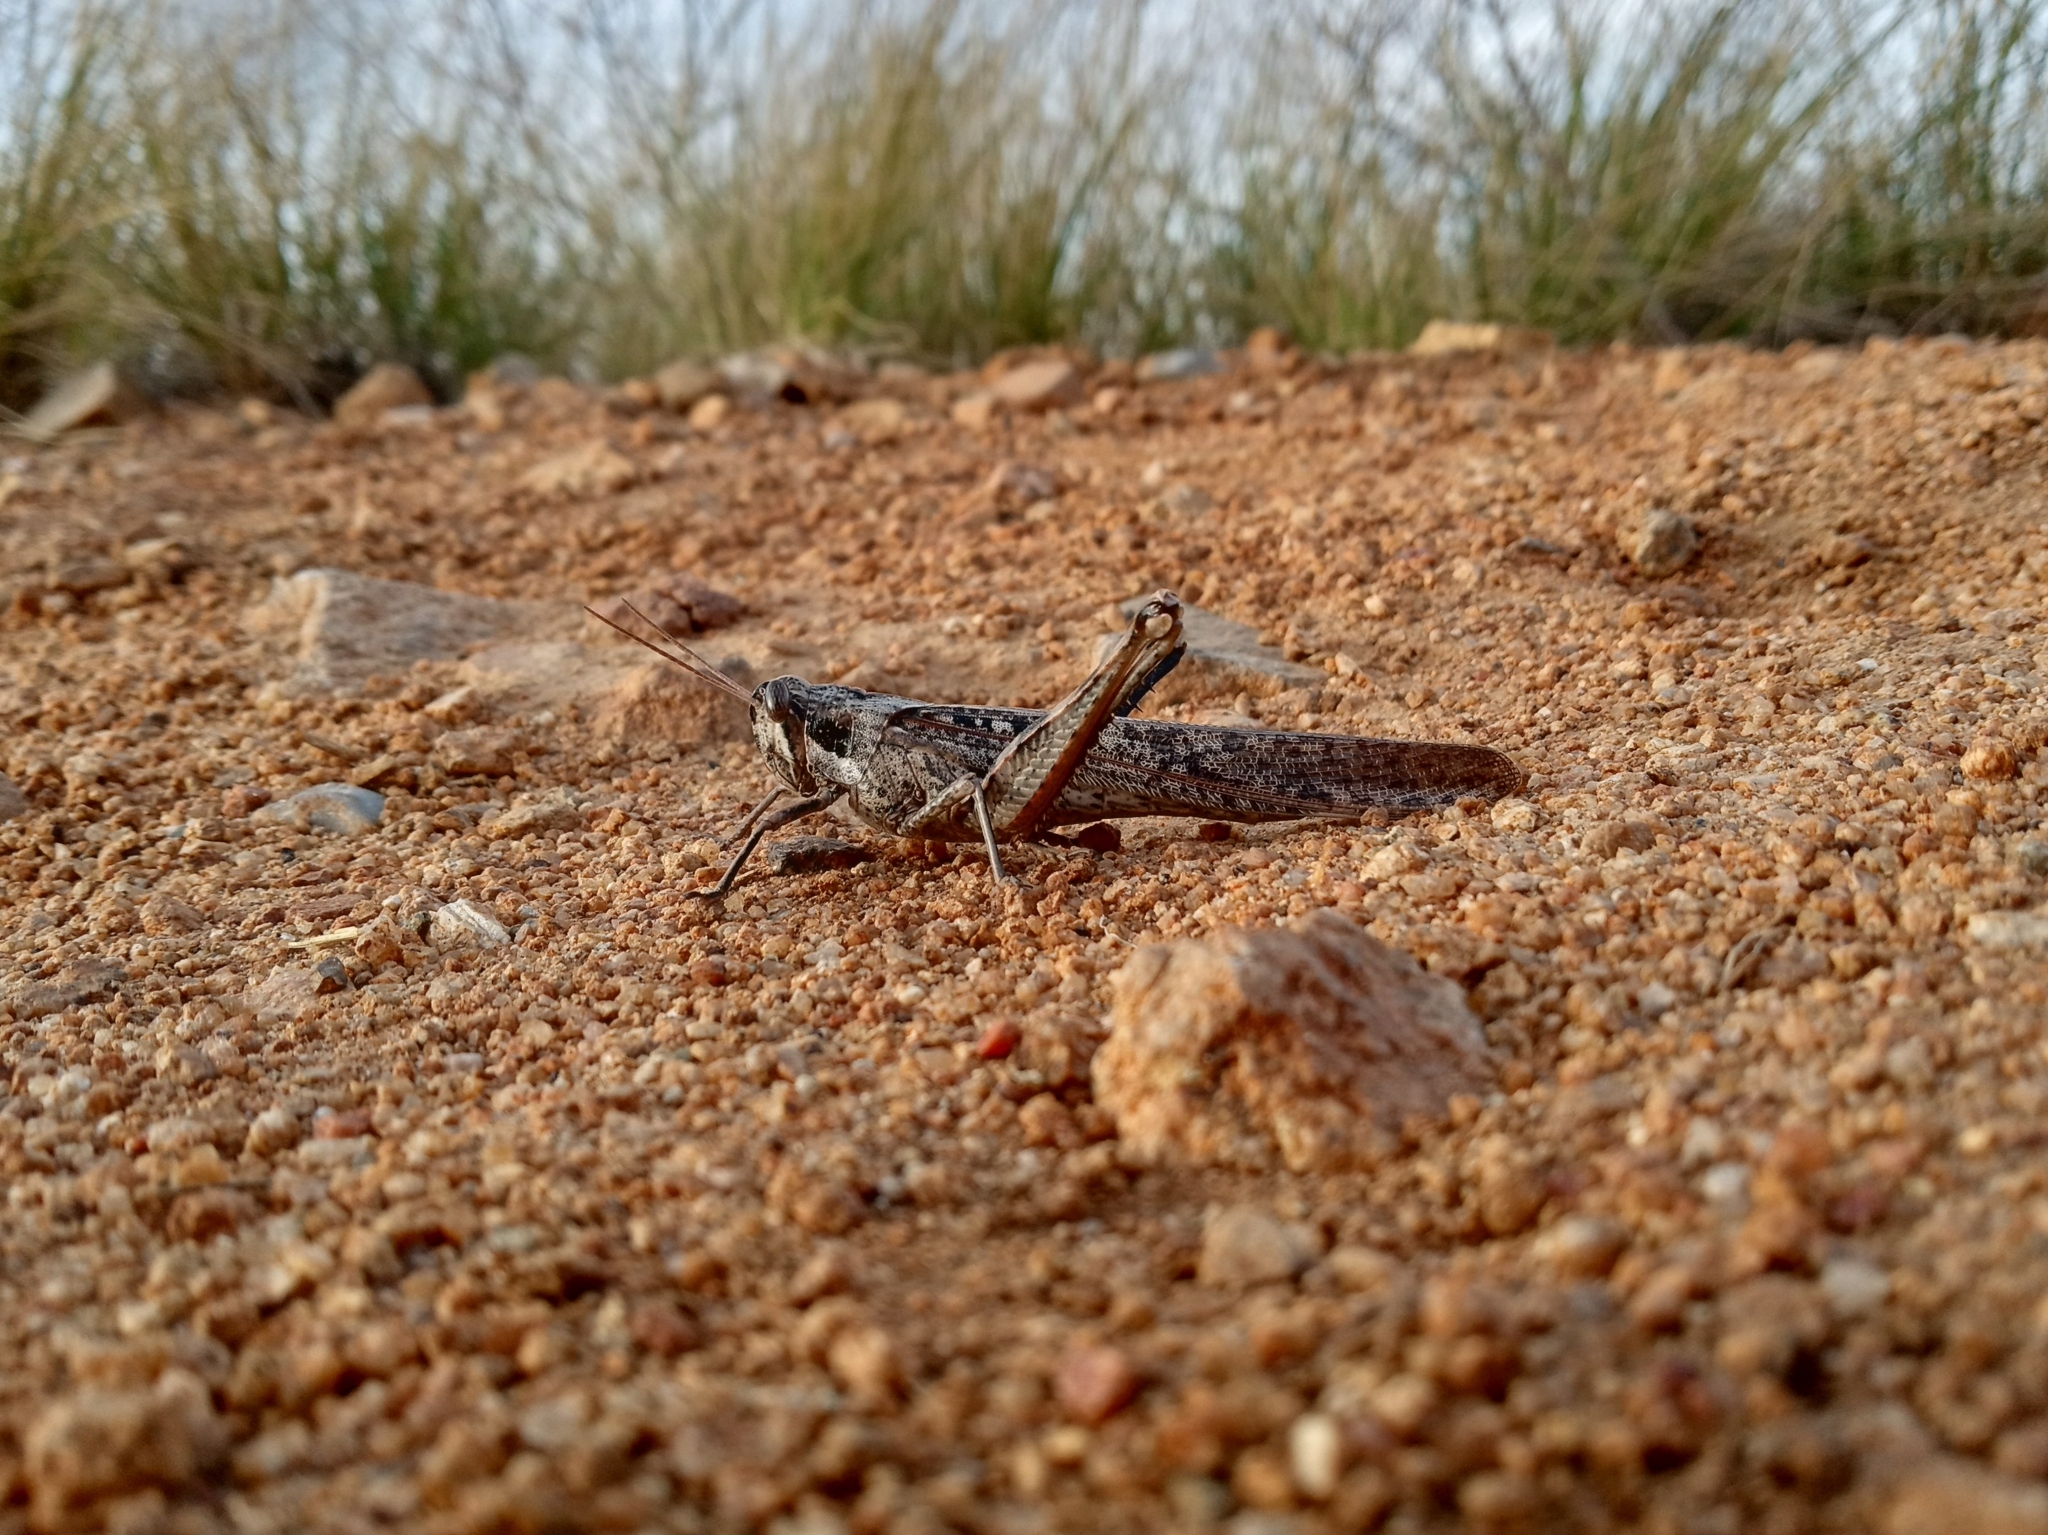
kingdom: Animalia
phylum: Arthropoda
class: Insecta
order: Orthoptera
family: Acrididae
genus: Schistocerca
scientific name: Schistocerca nitens
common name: Vagrant grasshopper
